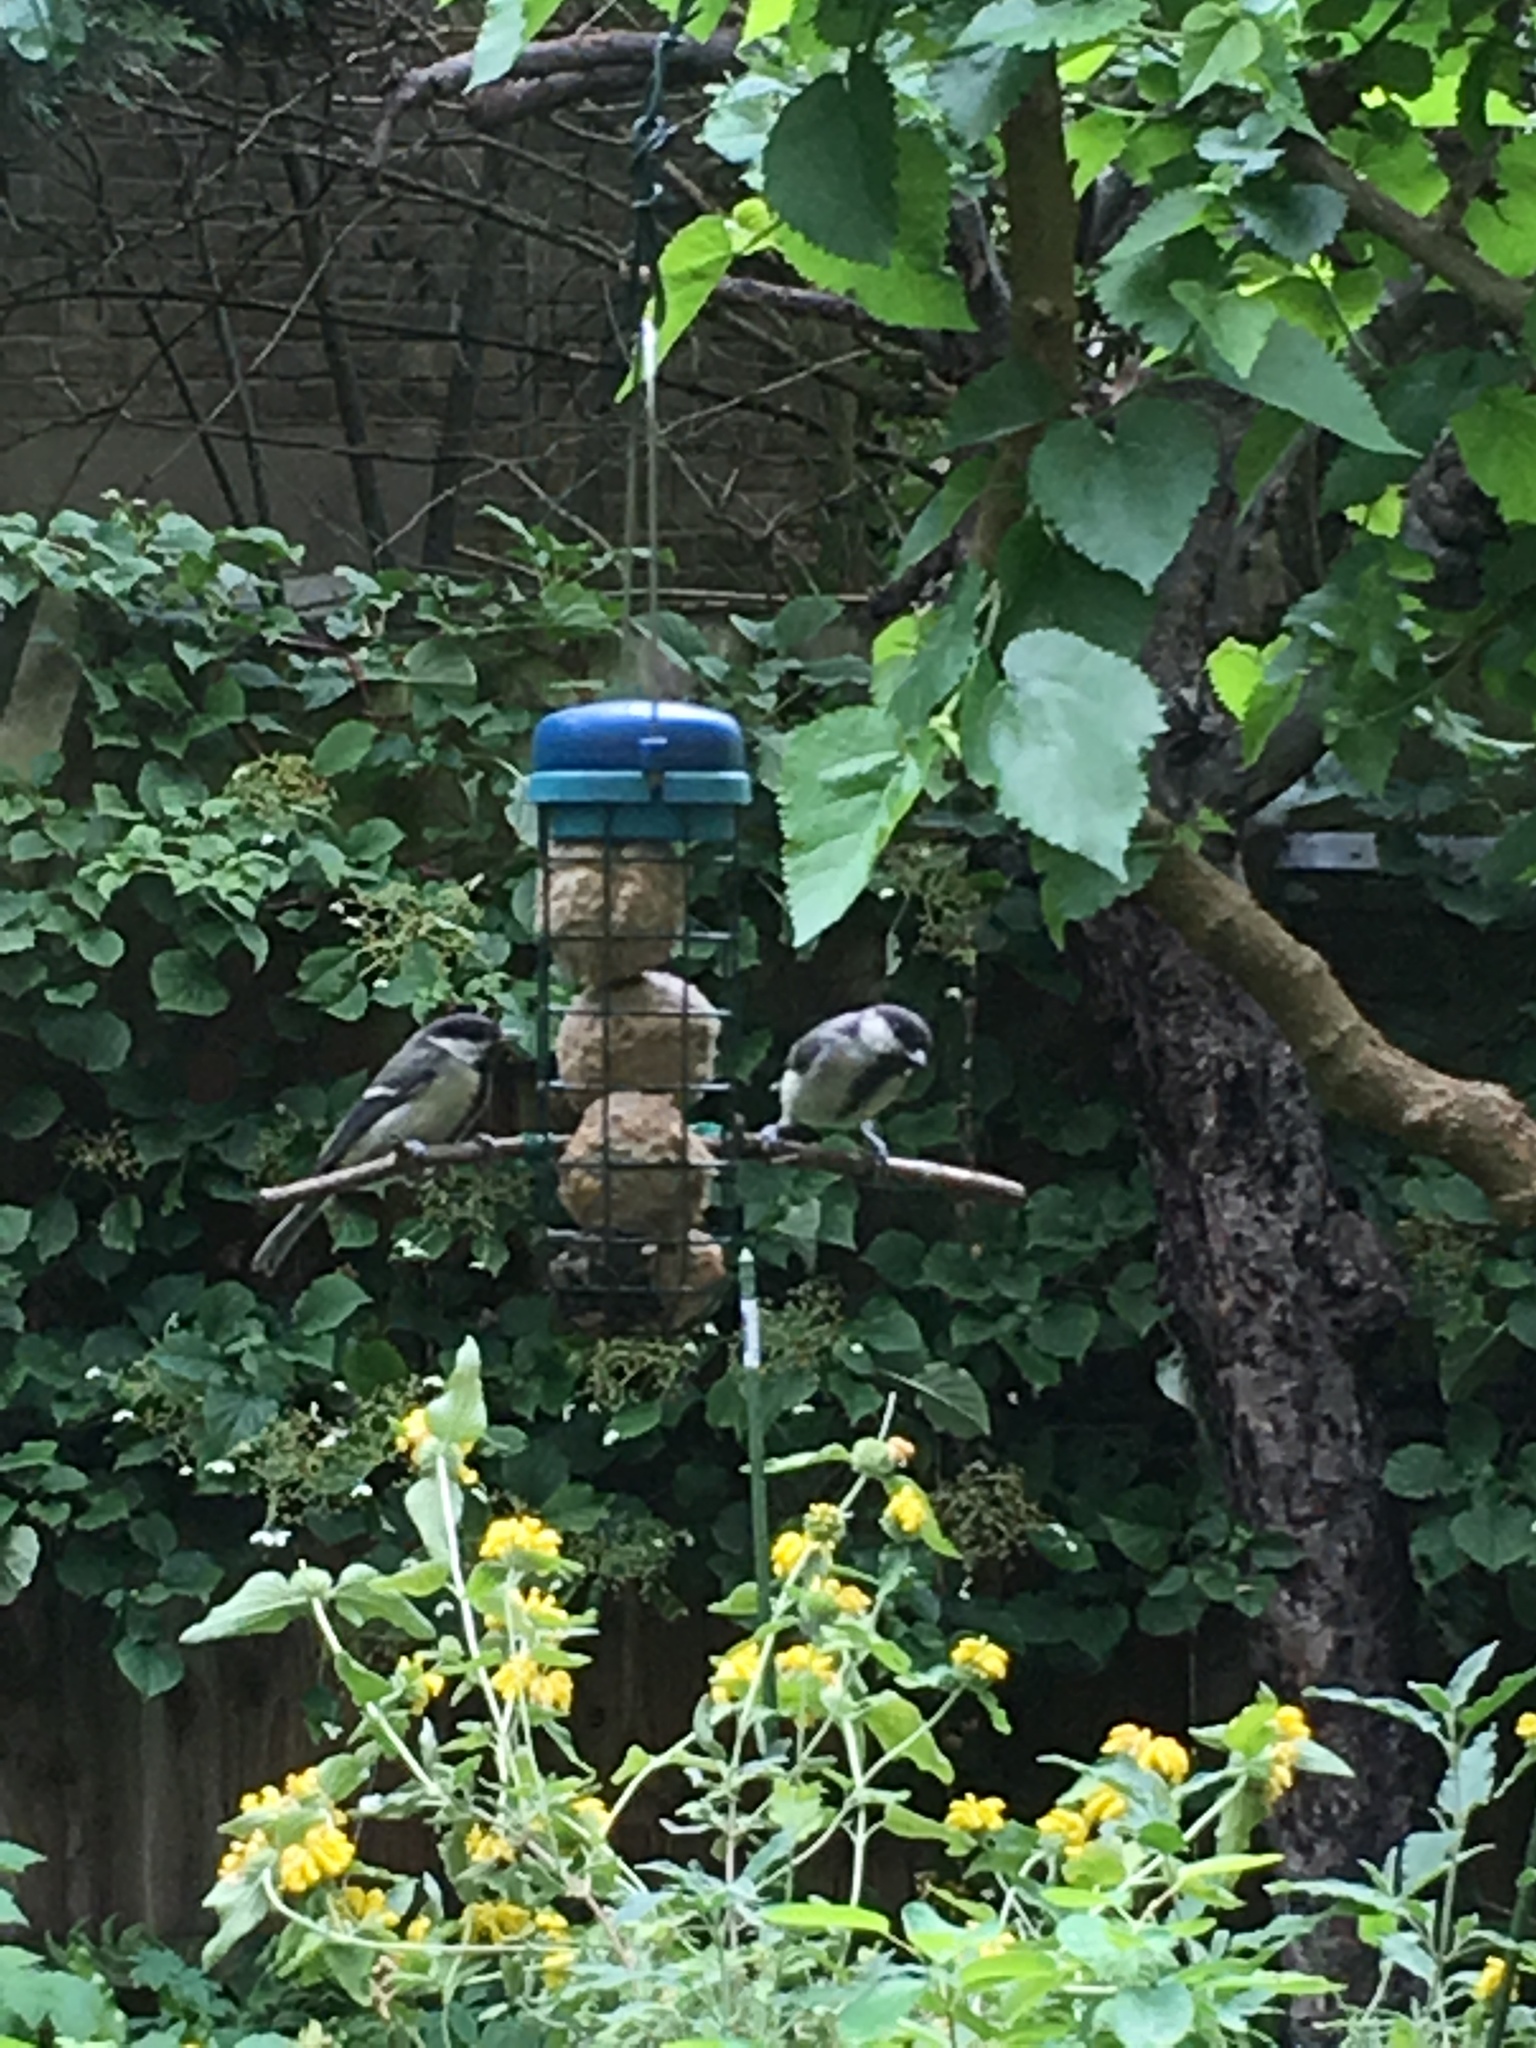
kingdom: Animalia
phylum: Chordata
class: Aves
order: Passeriformes
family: Paridae
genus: Parus
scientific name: Parus major
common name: Great tit
